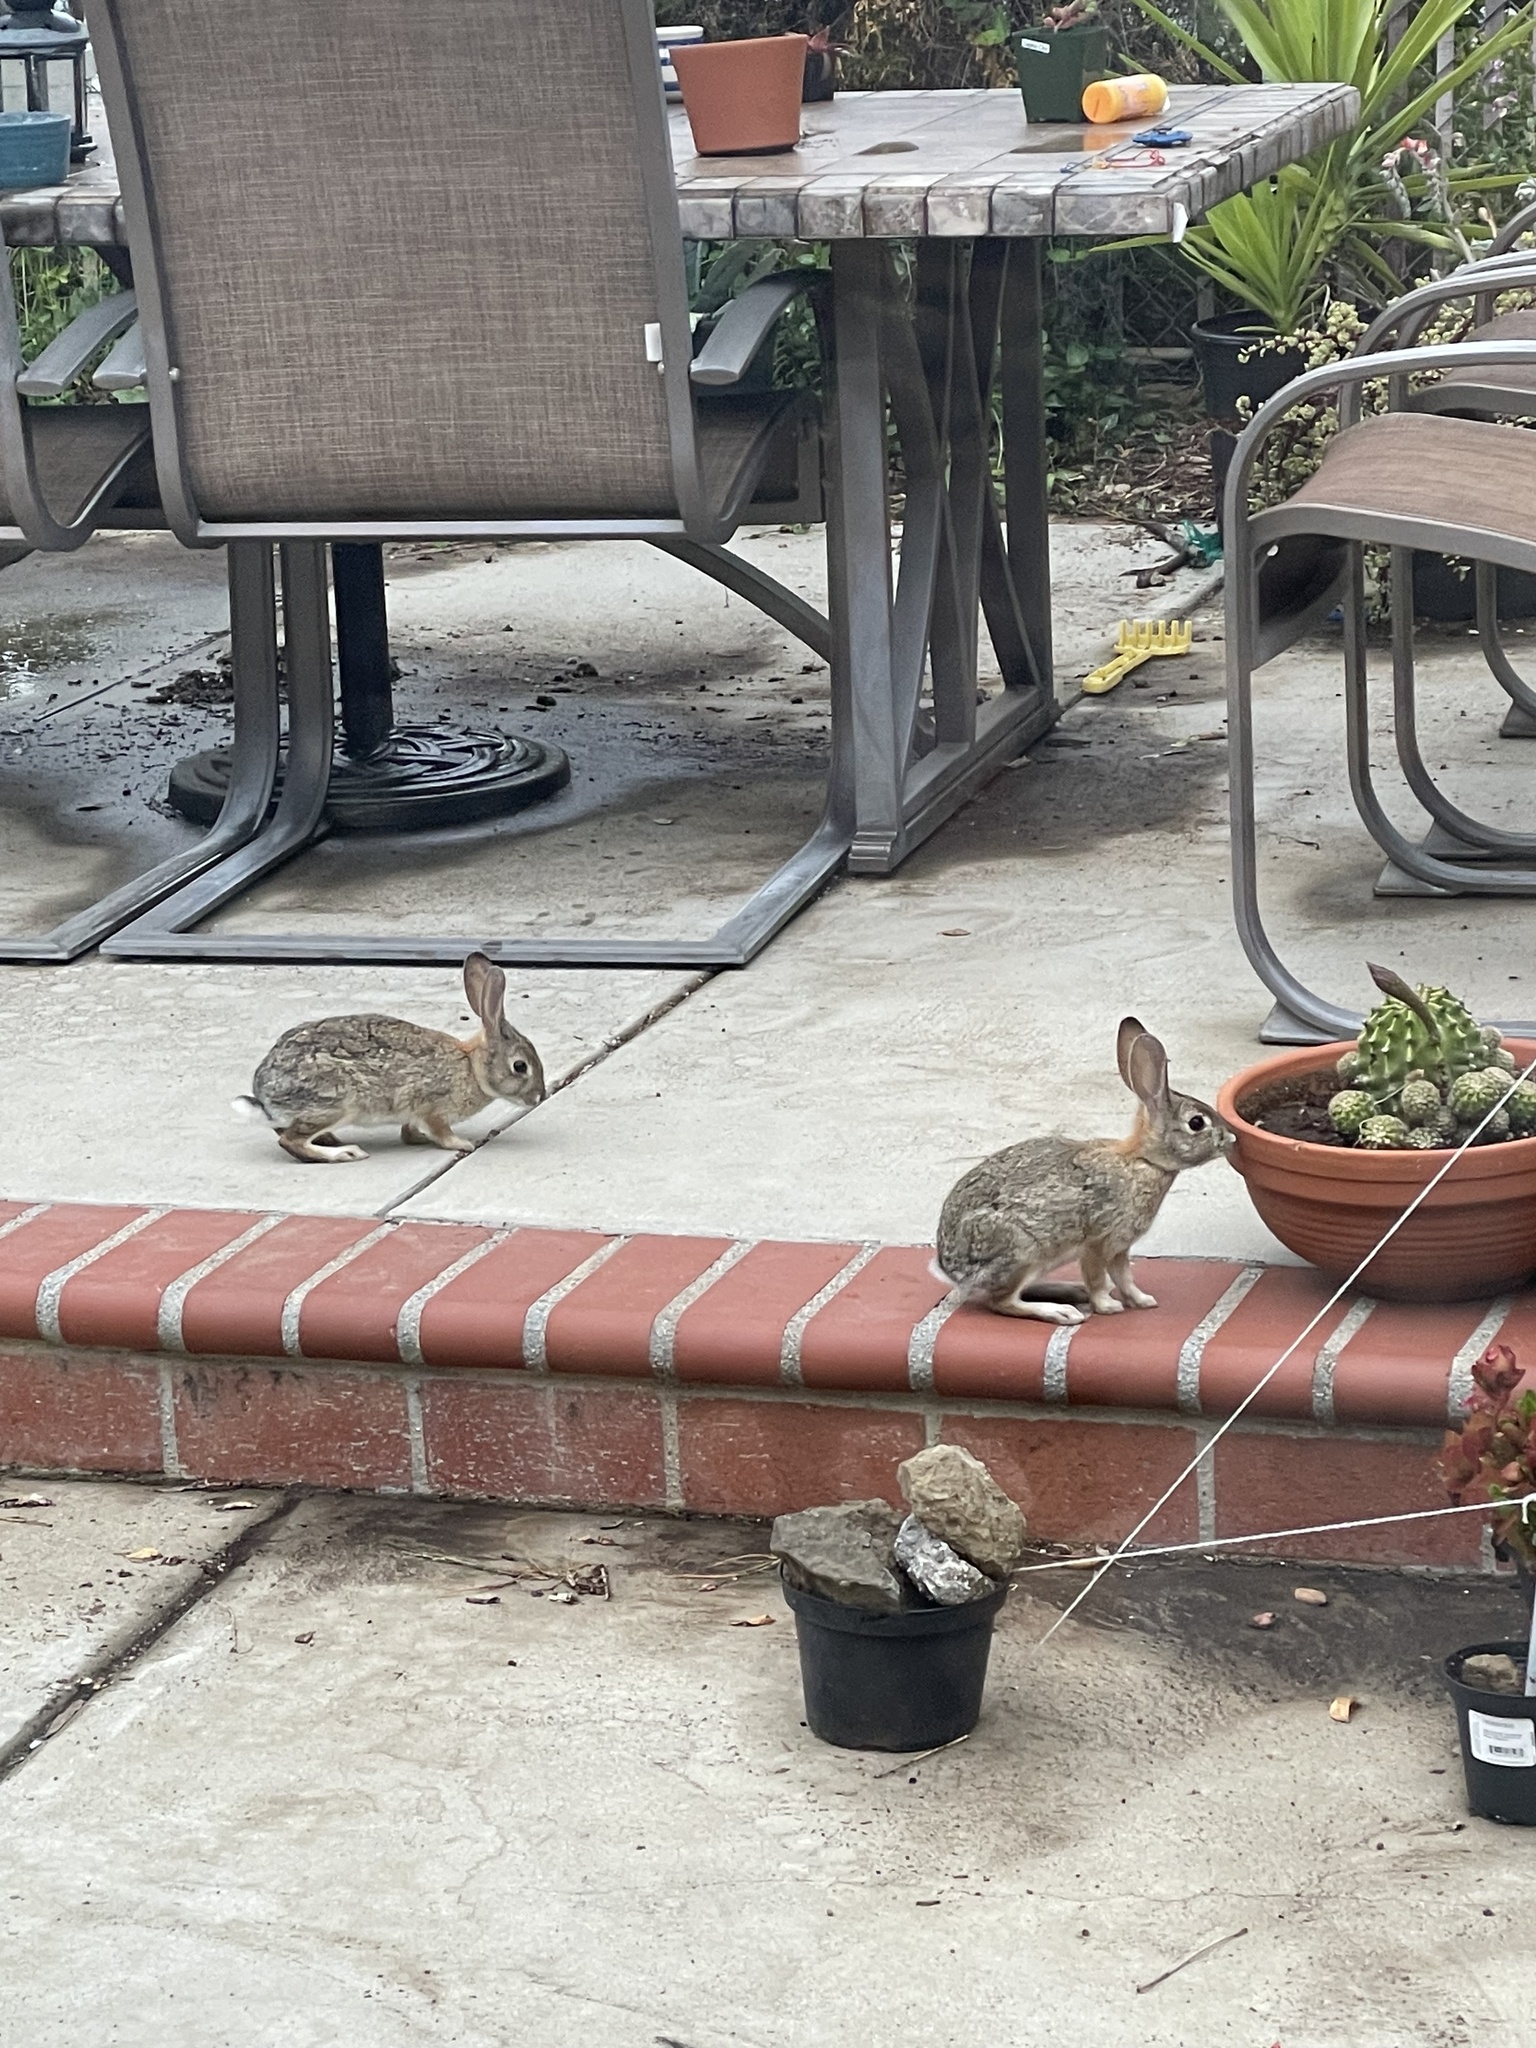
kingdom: Animalia
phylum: Chordata
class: Mammalia
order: Lagomorpha
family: Leporidae
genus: Sylvilagus
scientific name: Sylvilagus audubonii
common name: Desert cottontail
